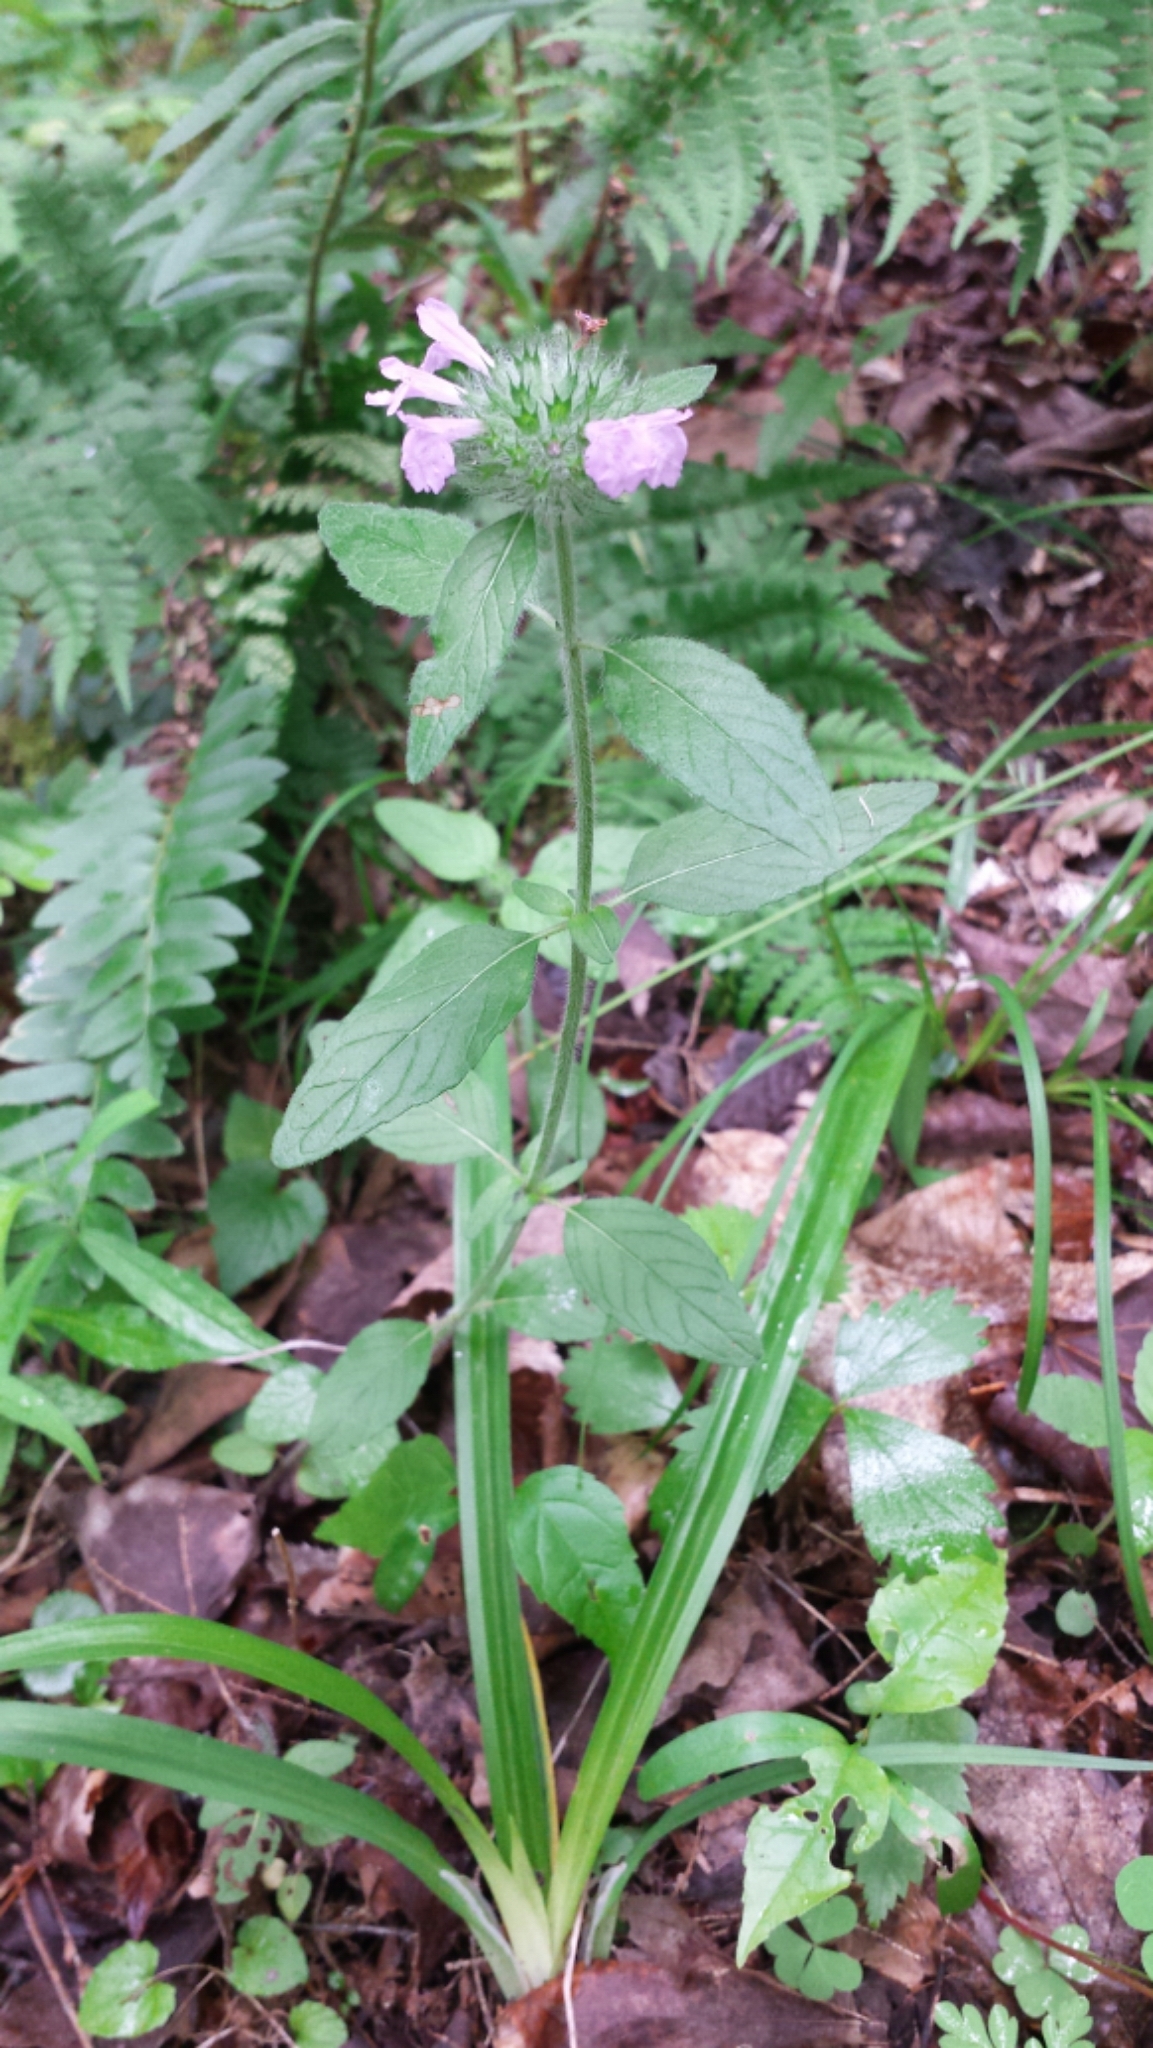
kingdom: Plantae
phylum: Tracheophyta
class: Magnoliopsida
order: Lamiales
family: Lamiaceae
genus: Clinopodium
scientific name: Clinopodium vulgare
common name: Wild basil
